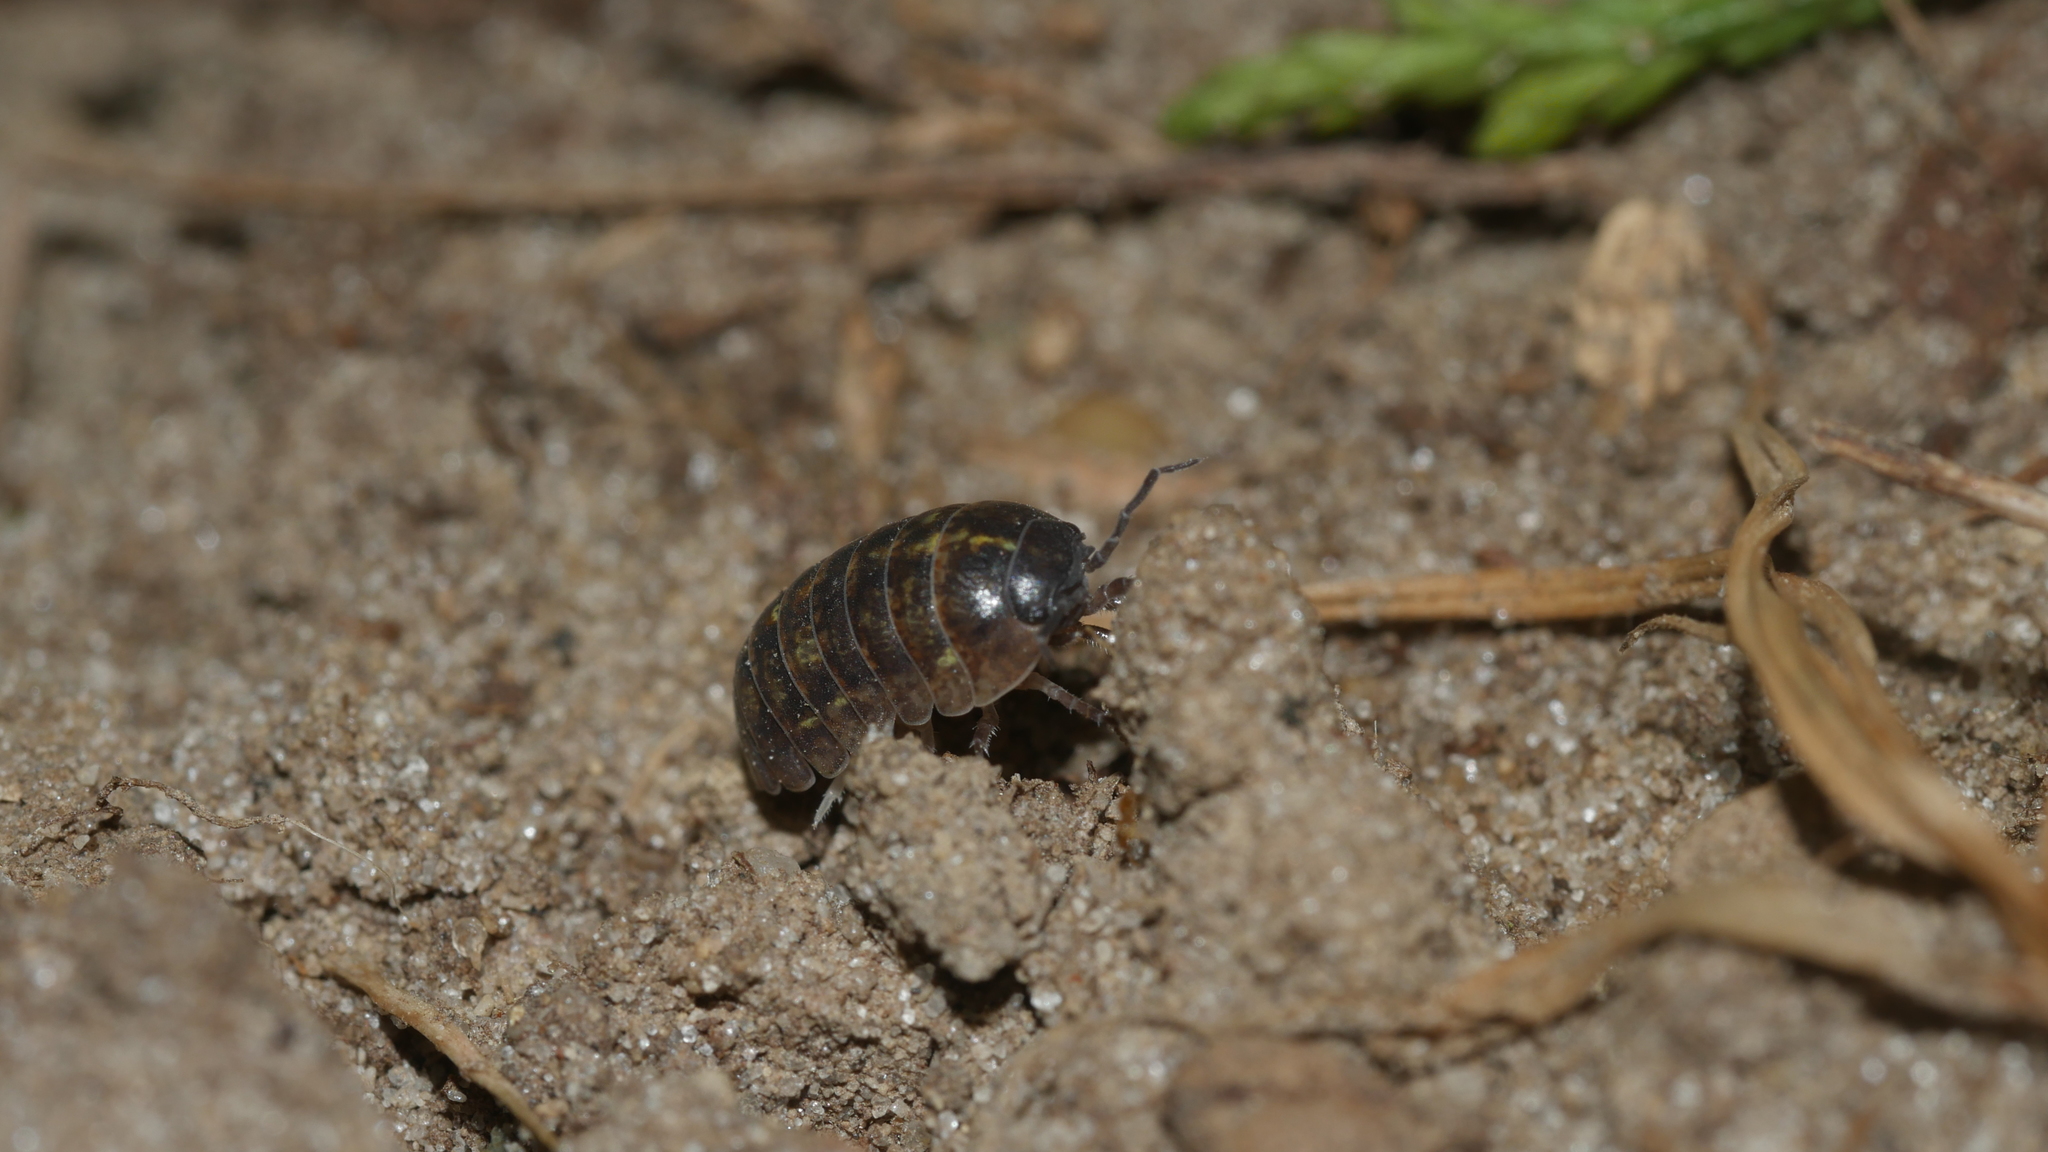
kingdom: Animalia
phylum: Arthropoda
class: Malacostraca
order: Isopoda
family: Armadillidiidae
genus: Armadillidium
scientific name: Armadillidium vulgare
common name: Common pill woodlouse
